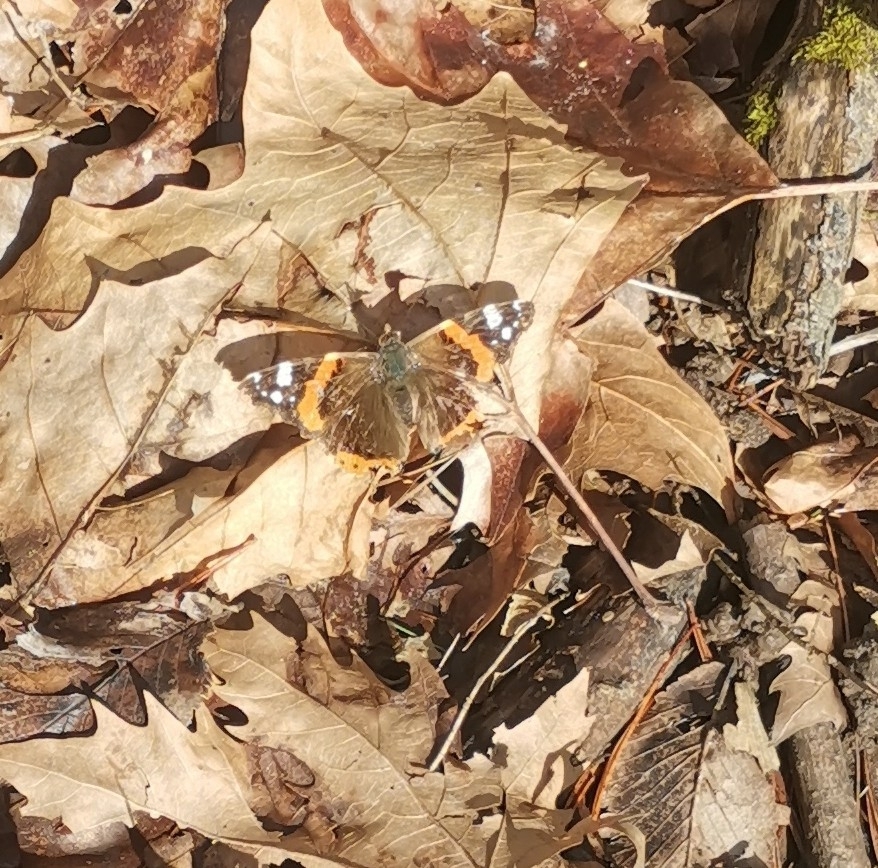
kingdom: Animalia
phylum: Arthropoda
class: Insecta
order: Lepidoptera
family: Nymphalidae
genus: Vanessa
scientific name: Vanessa atalanta
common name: Red admiral
